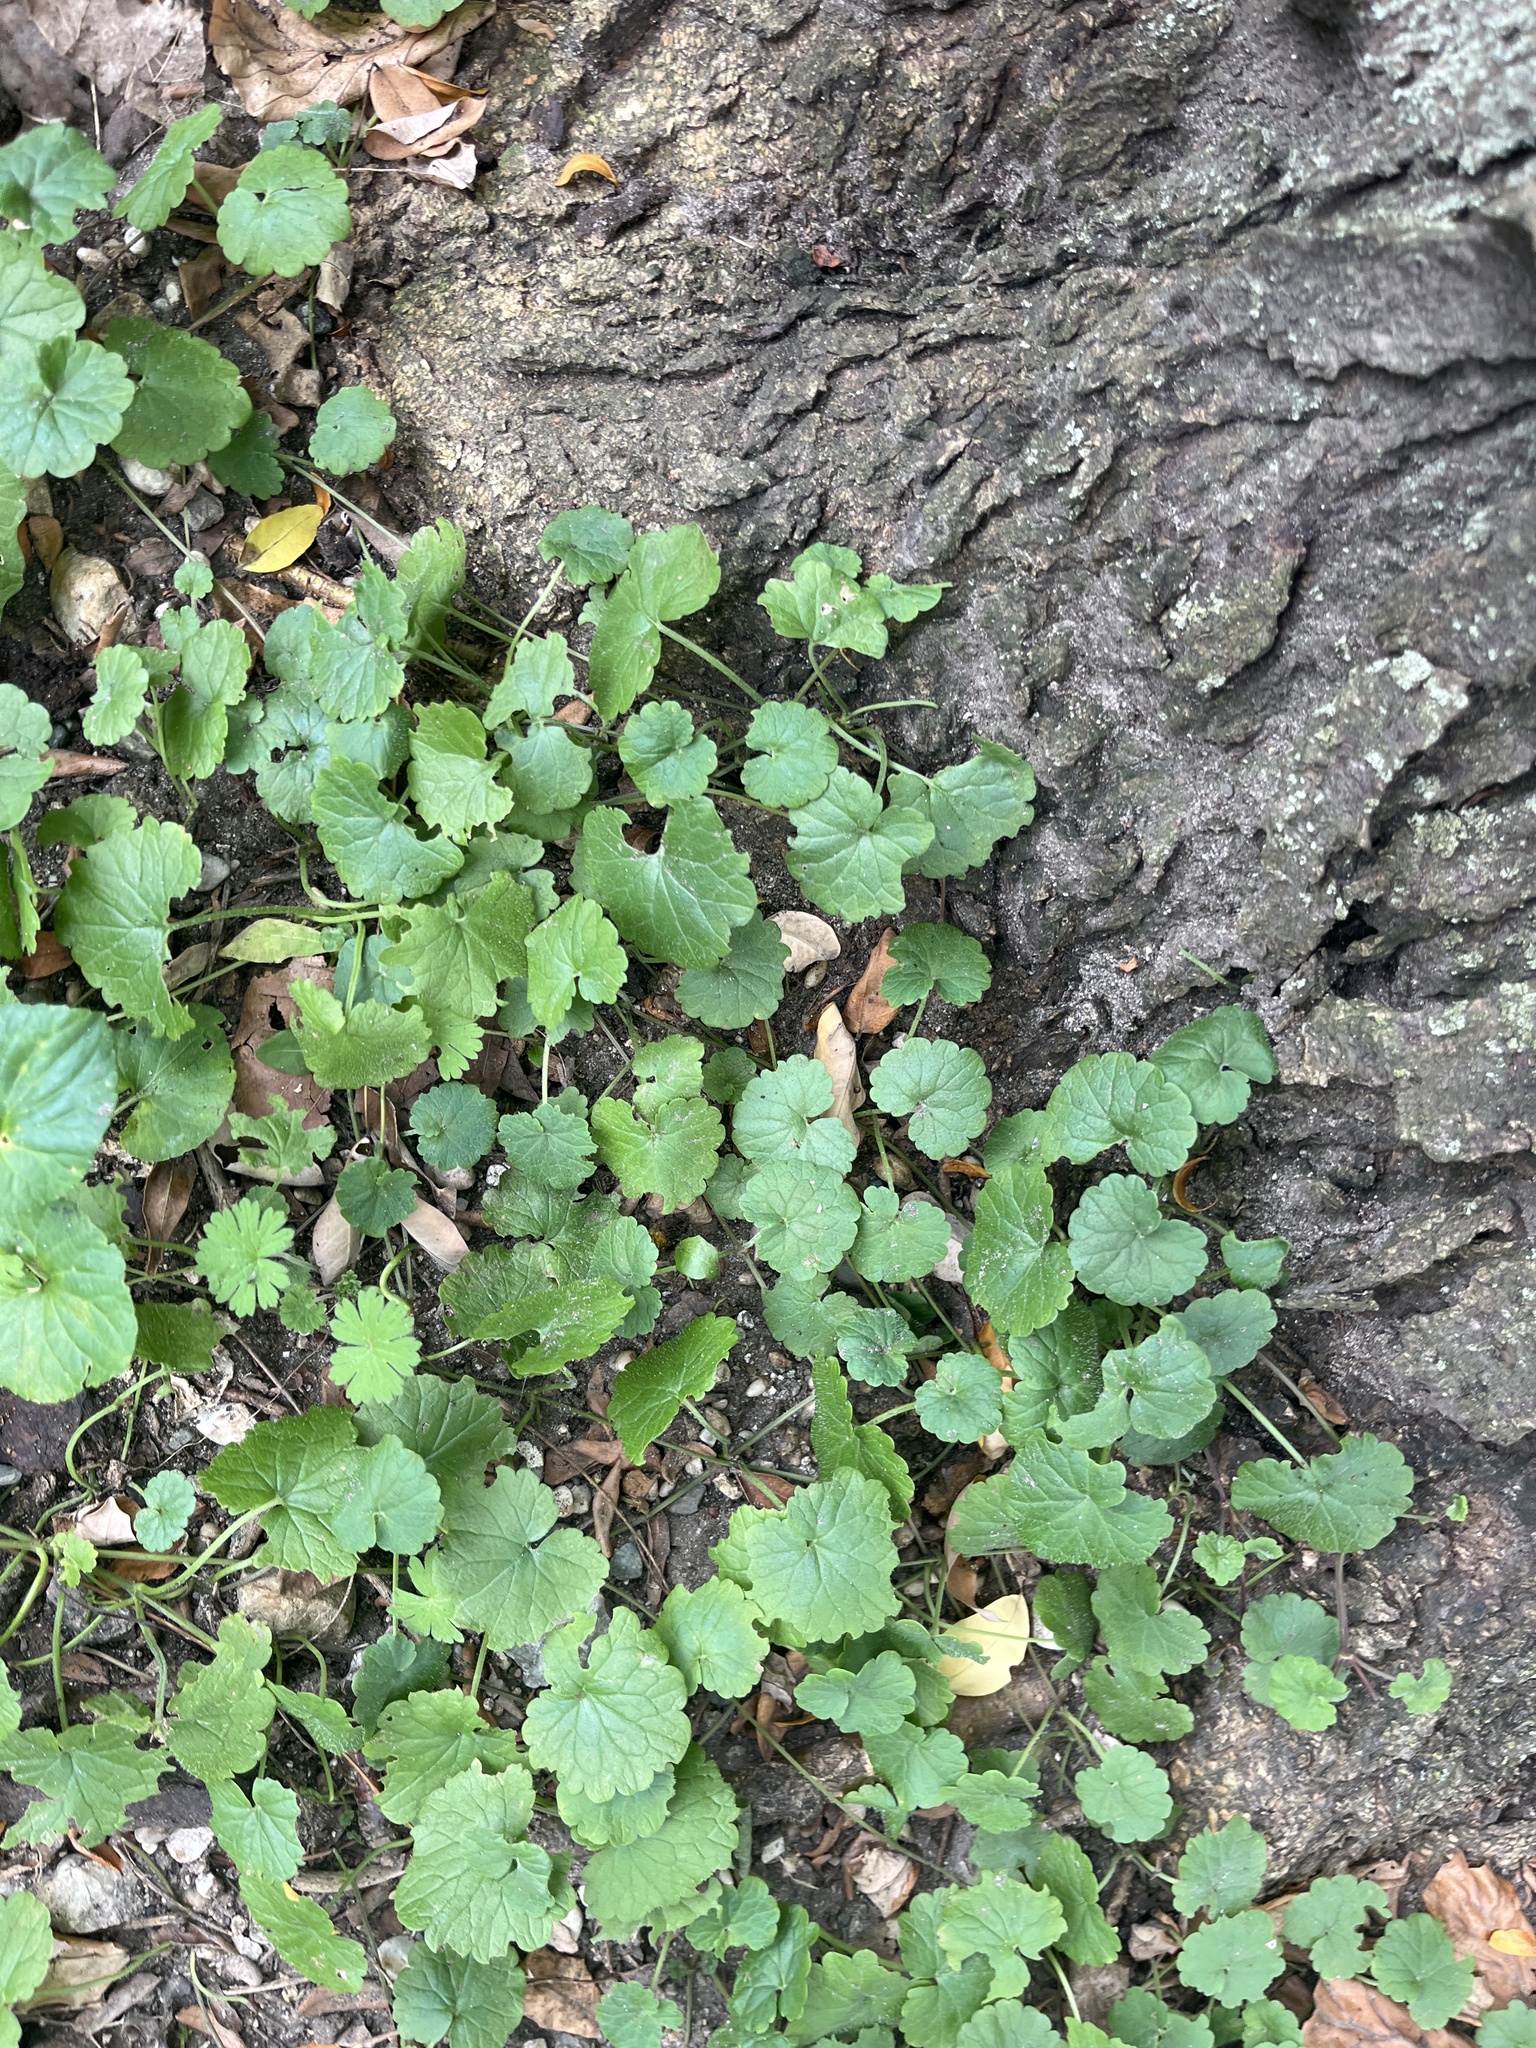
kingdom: Plantae
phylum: Tracheophyta
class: Magnoliopsida
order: Lamiales
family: Lamiaceae
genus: Glechoma
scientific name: Glechoma hederacea
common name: Ground ivy
